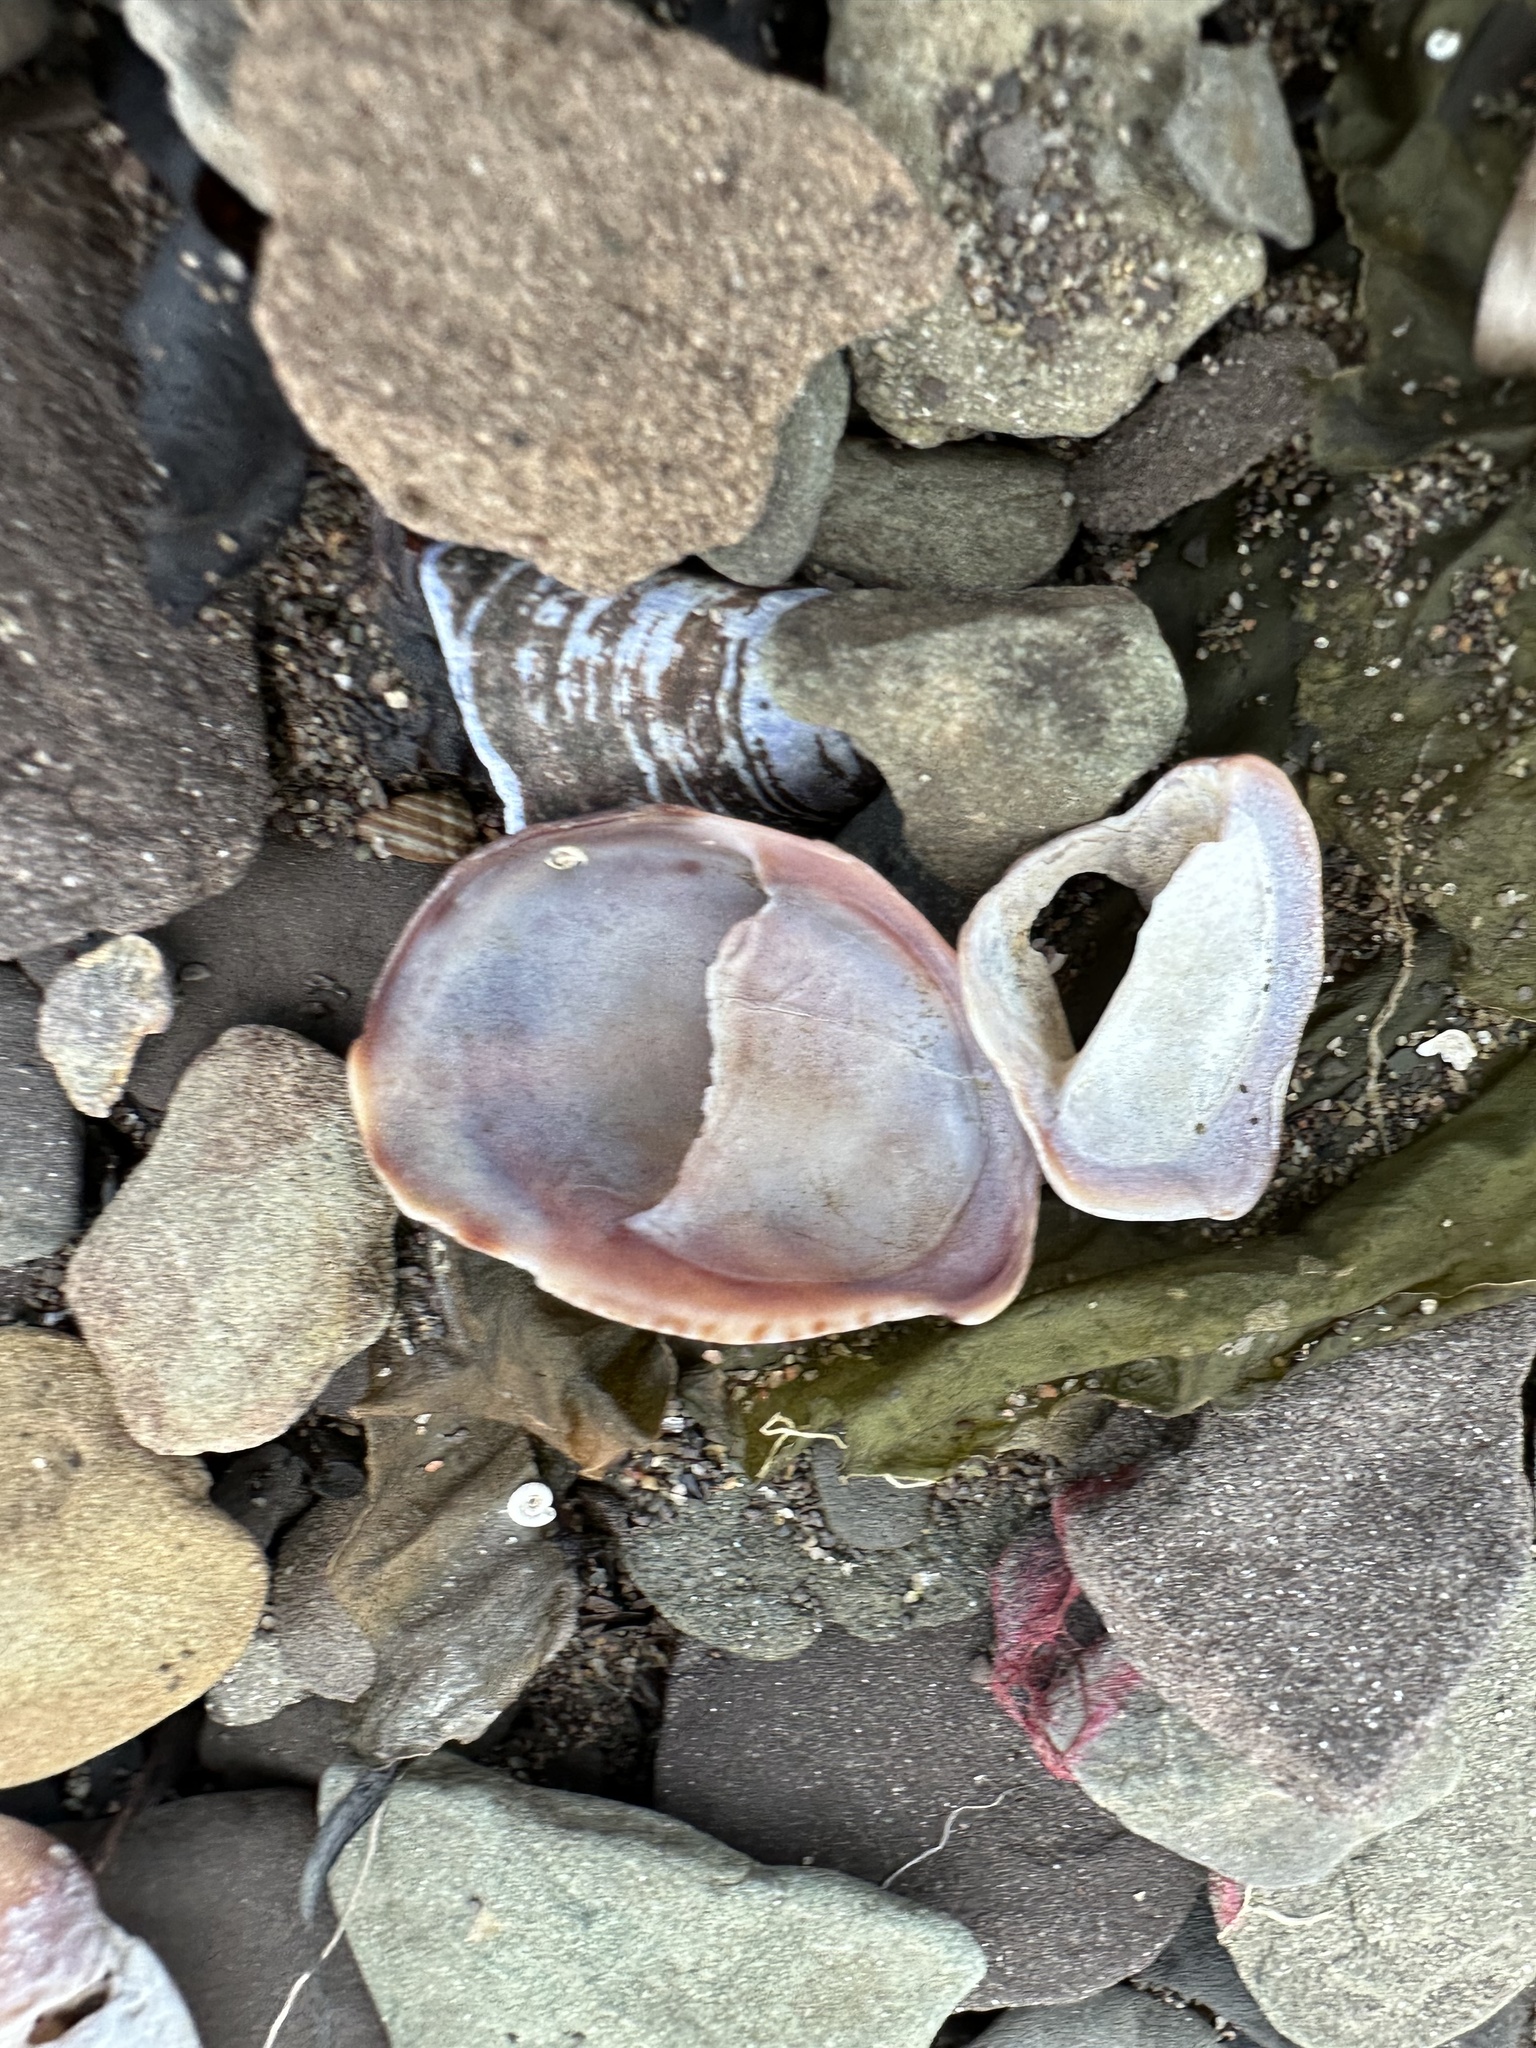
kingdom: Animalia
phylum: Mollusca
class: Gastropoda
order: Littorinimorpha
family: Calyptraeidae
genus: Crepidula
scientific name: Crepidula fornicata
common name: Slipper limpet
